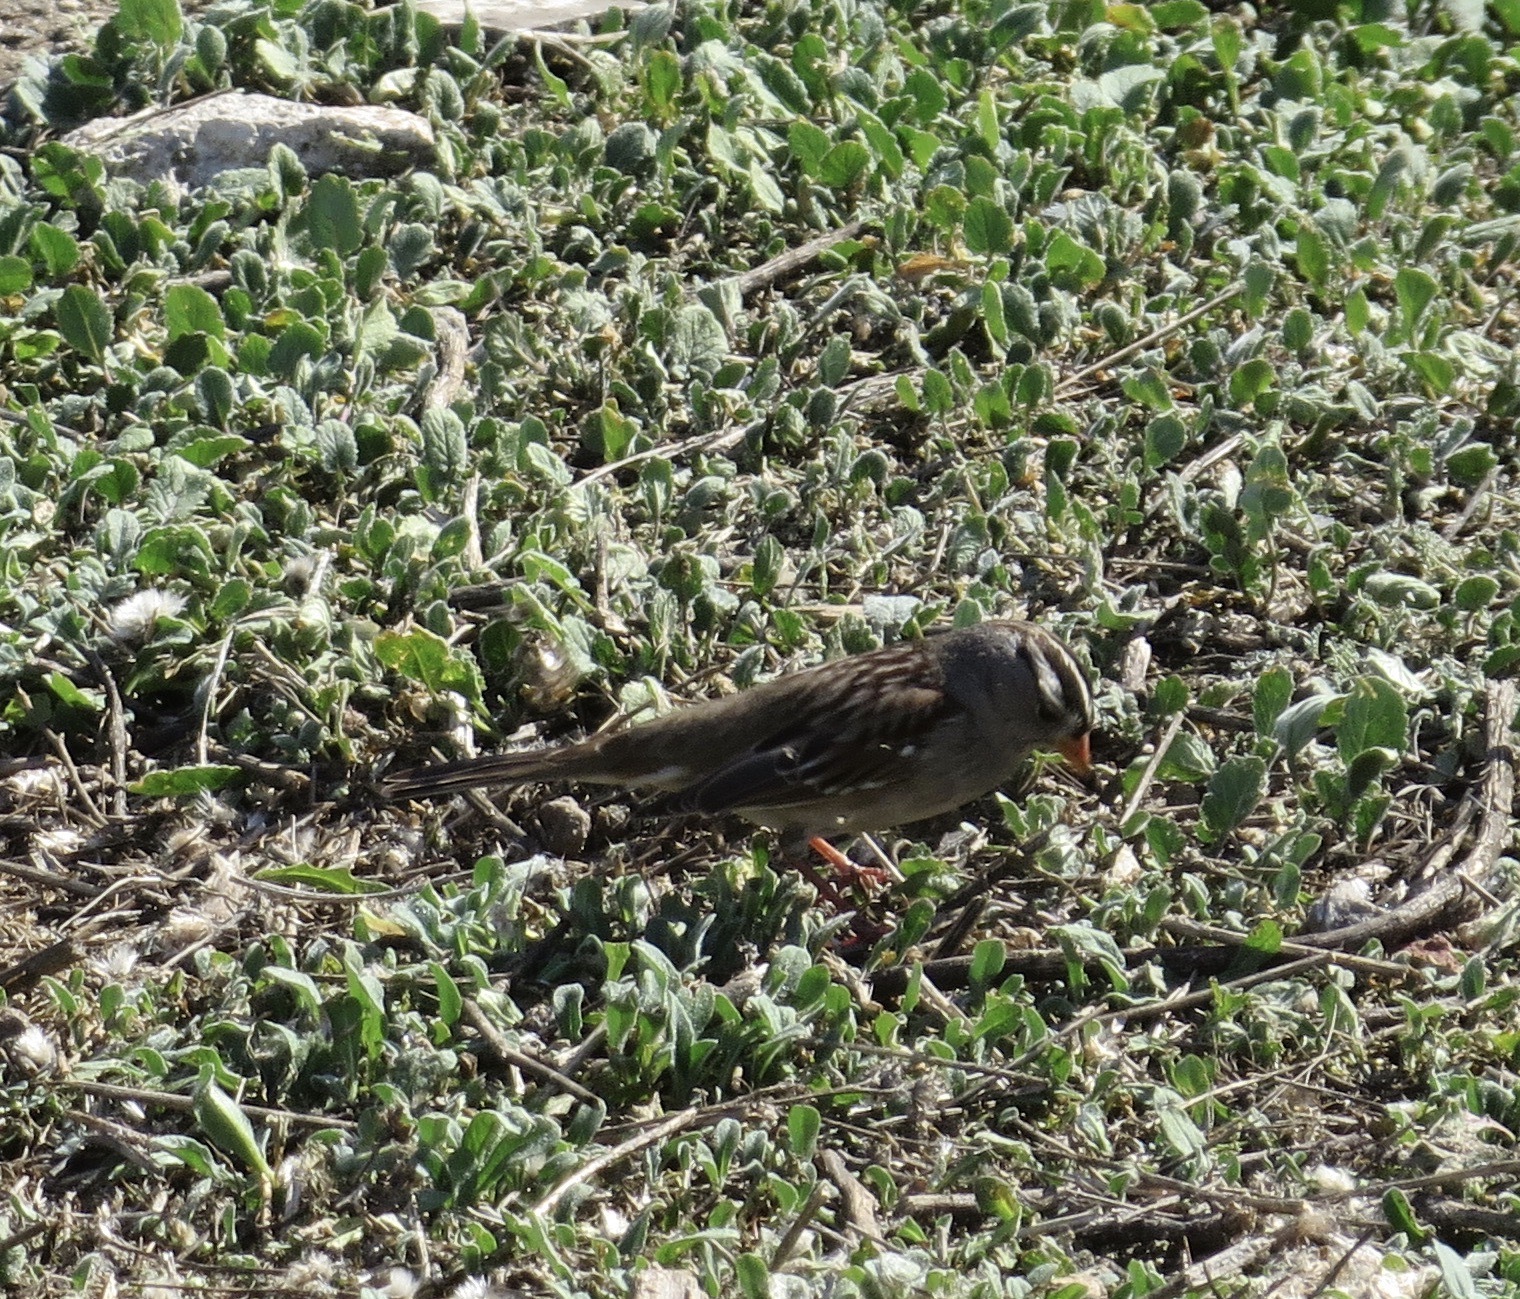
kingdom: Animalia
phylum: Chordata
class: Aves
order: Passeriformes
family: Passerellidae
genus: Zonotrichia
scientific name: Zonotrichia leucophrys
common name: White-crowned sparrow
